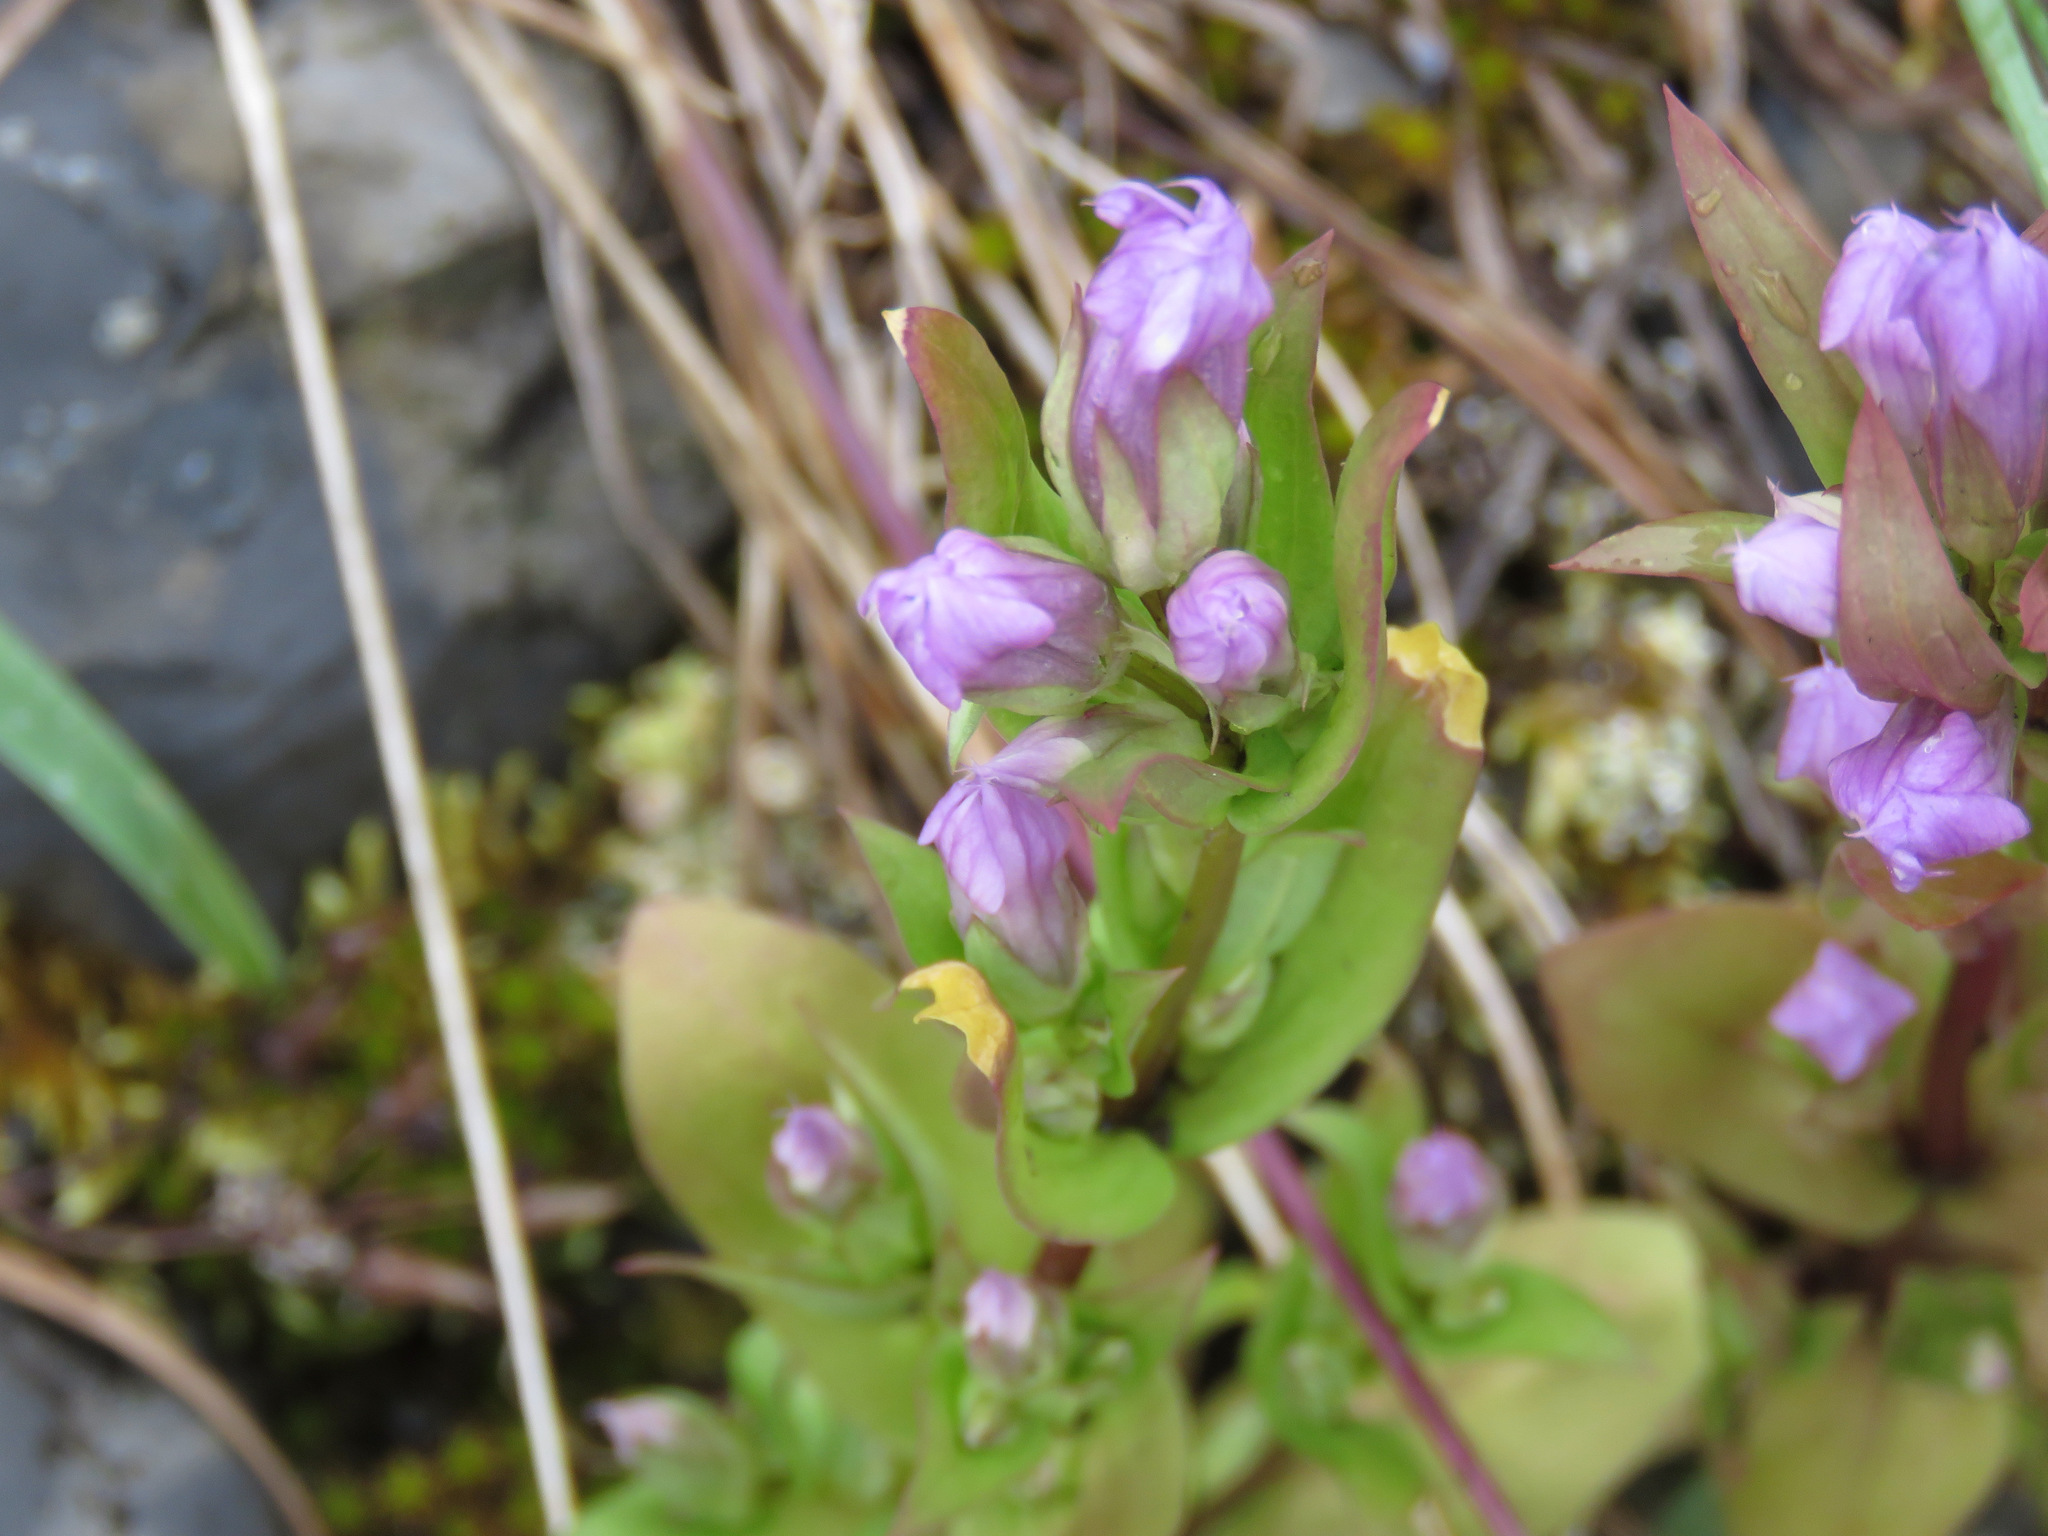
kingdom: Plantae
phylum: Tracheophyta
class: Magnoliopsida
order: Gentianales
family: Gentianaceae
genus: Gentianella
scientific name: Gentianella amarella
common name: Autumn gentian
